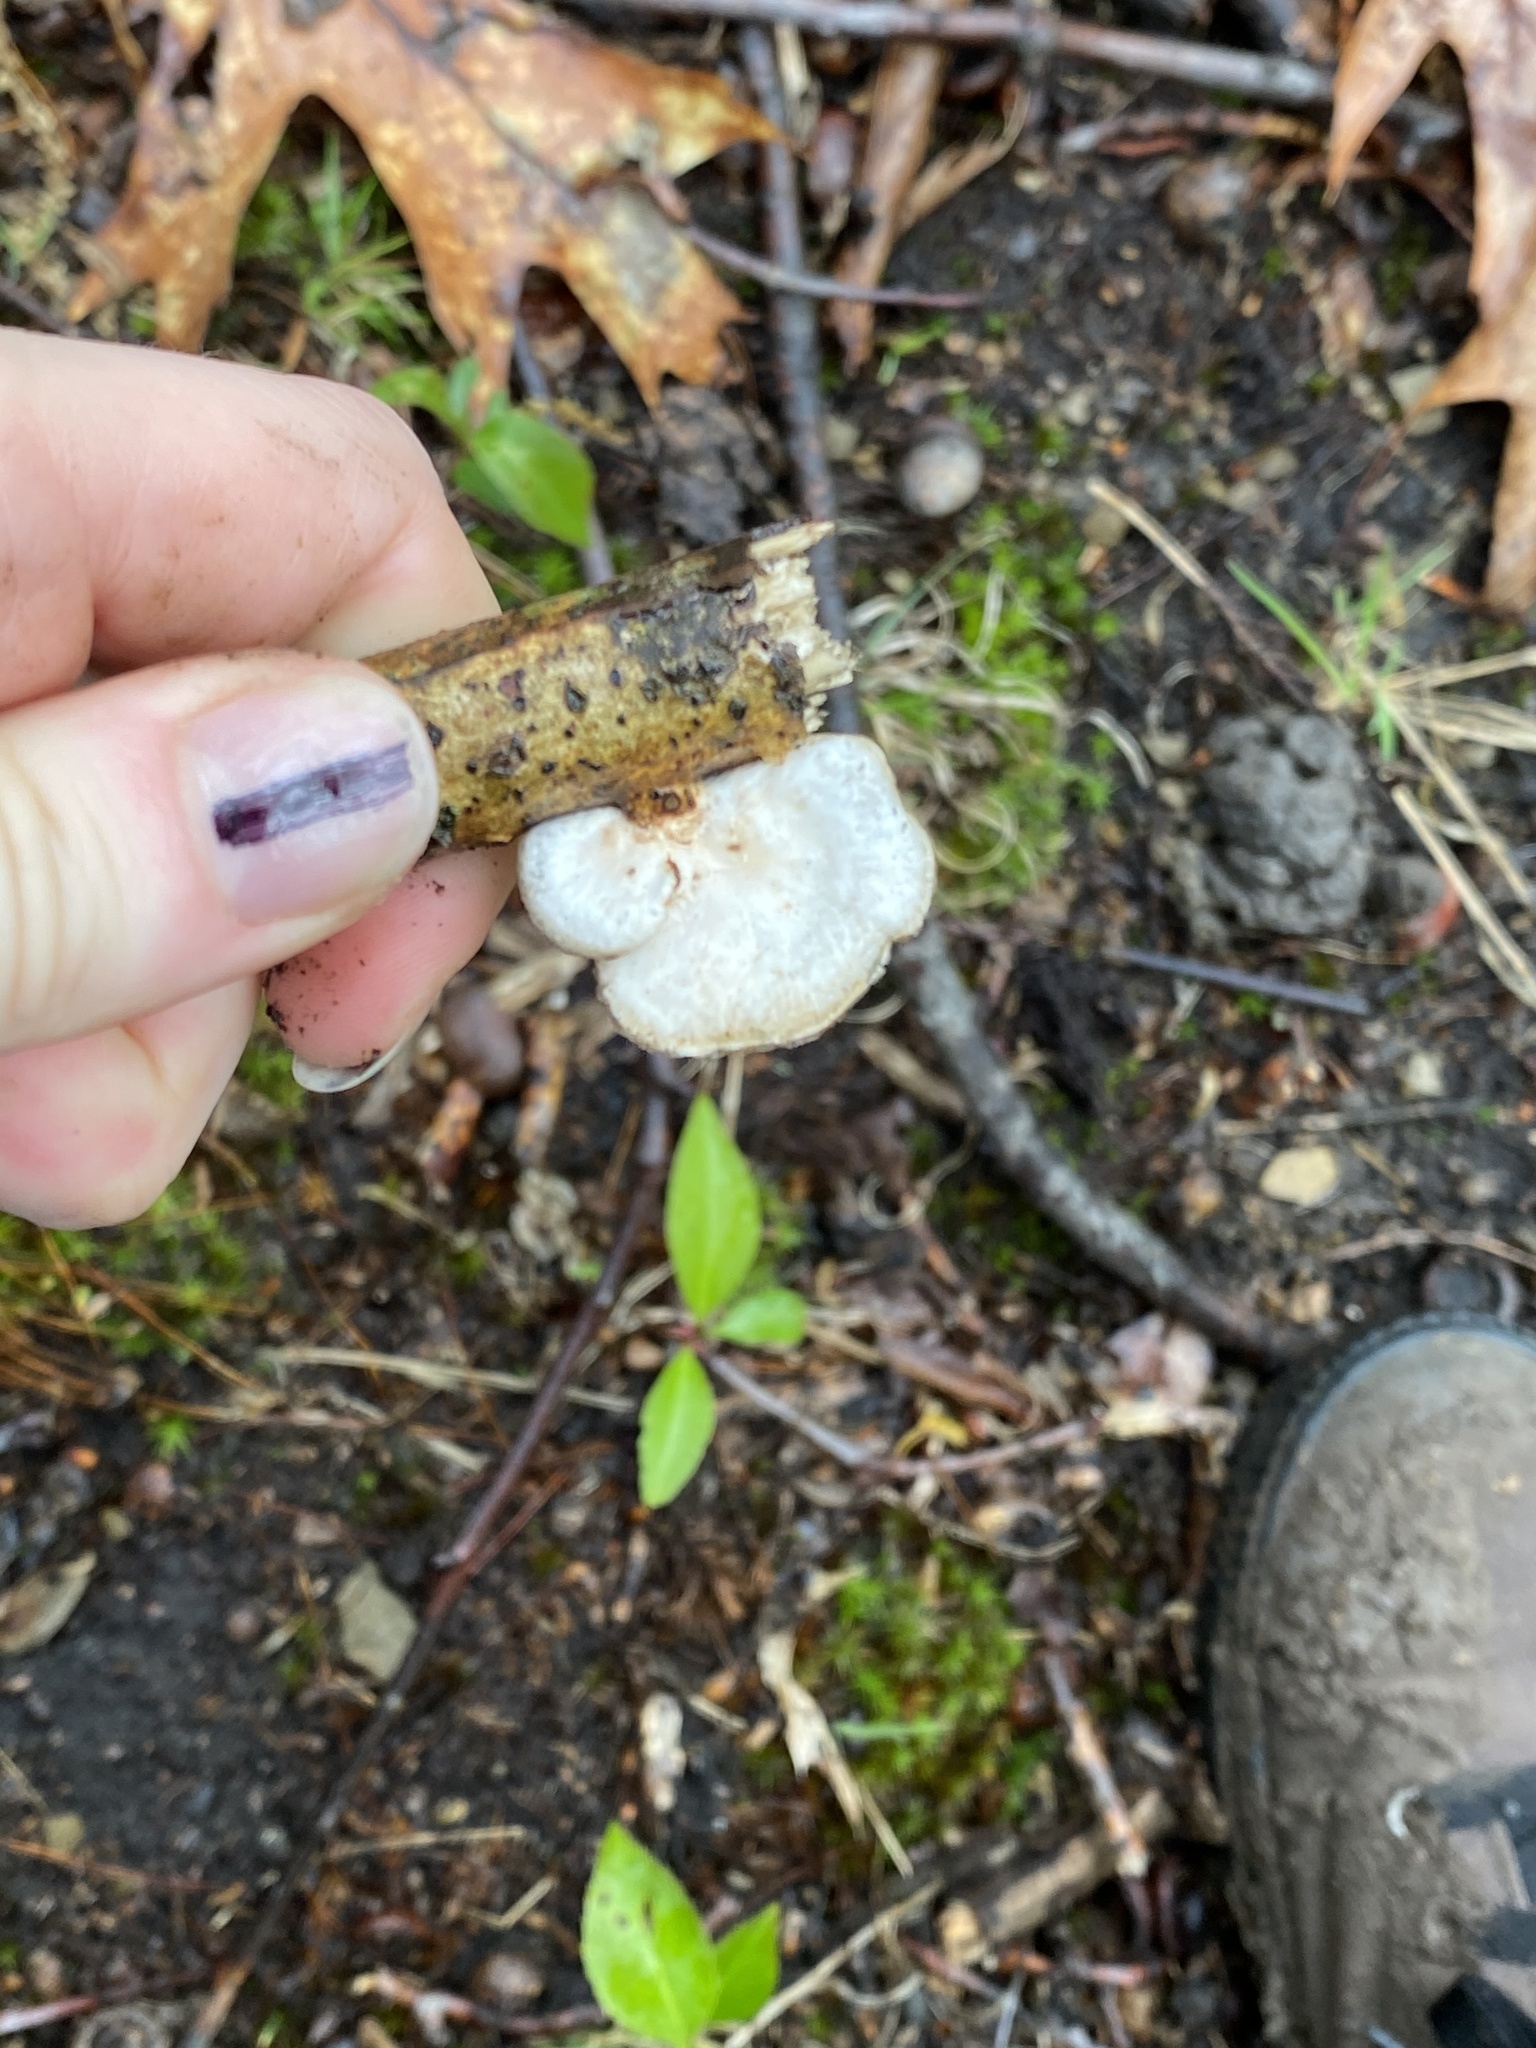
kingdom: Fungi
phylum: Basidiomycota
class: Agaricomycetes
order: Polyporales
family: Polyporaceae
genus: Neofavolus
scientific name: Neofavolus alveolaris
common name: Hexagonal-pored polypore
